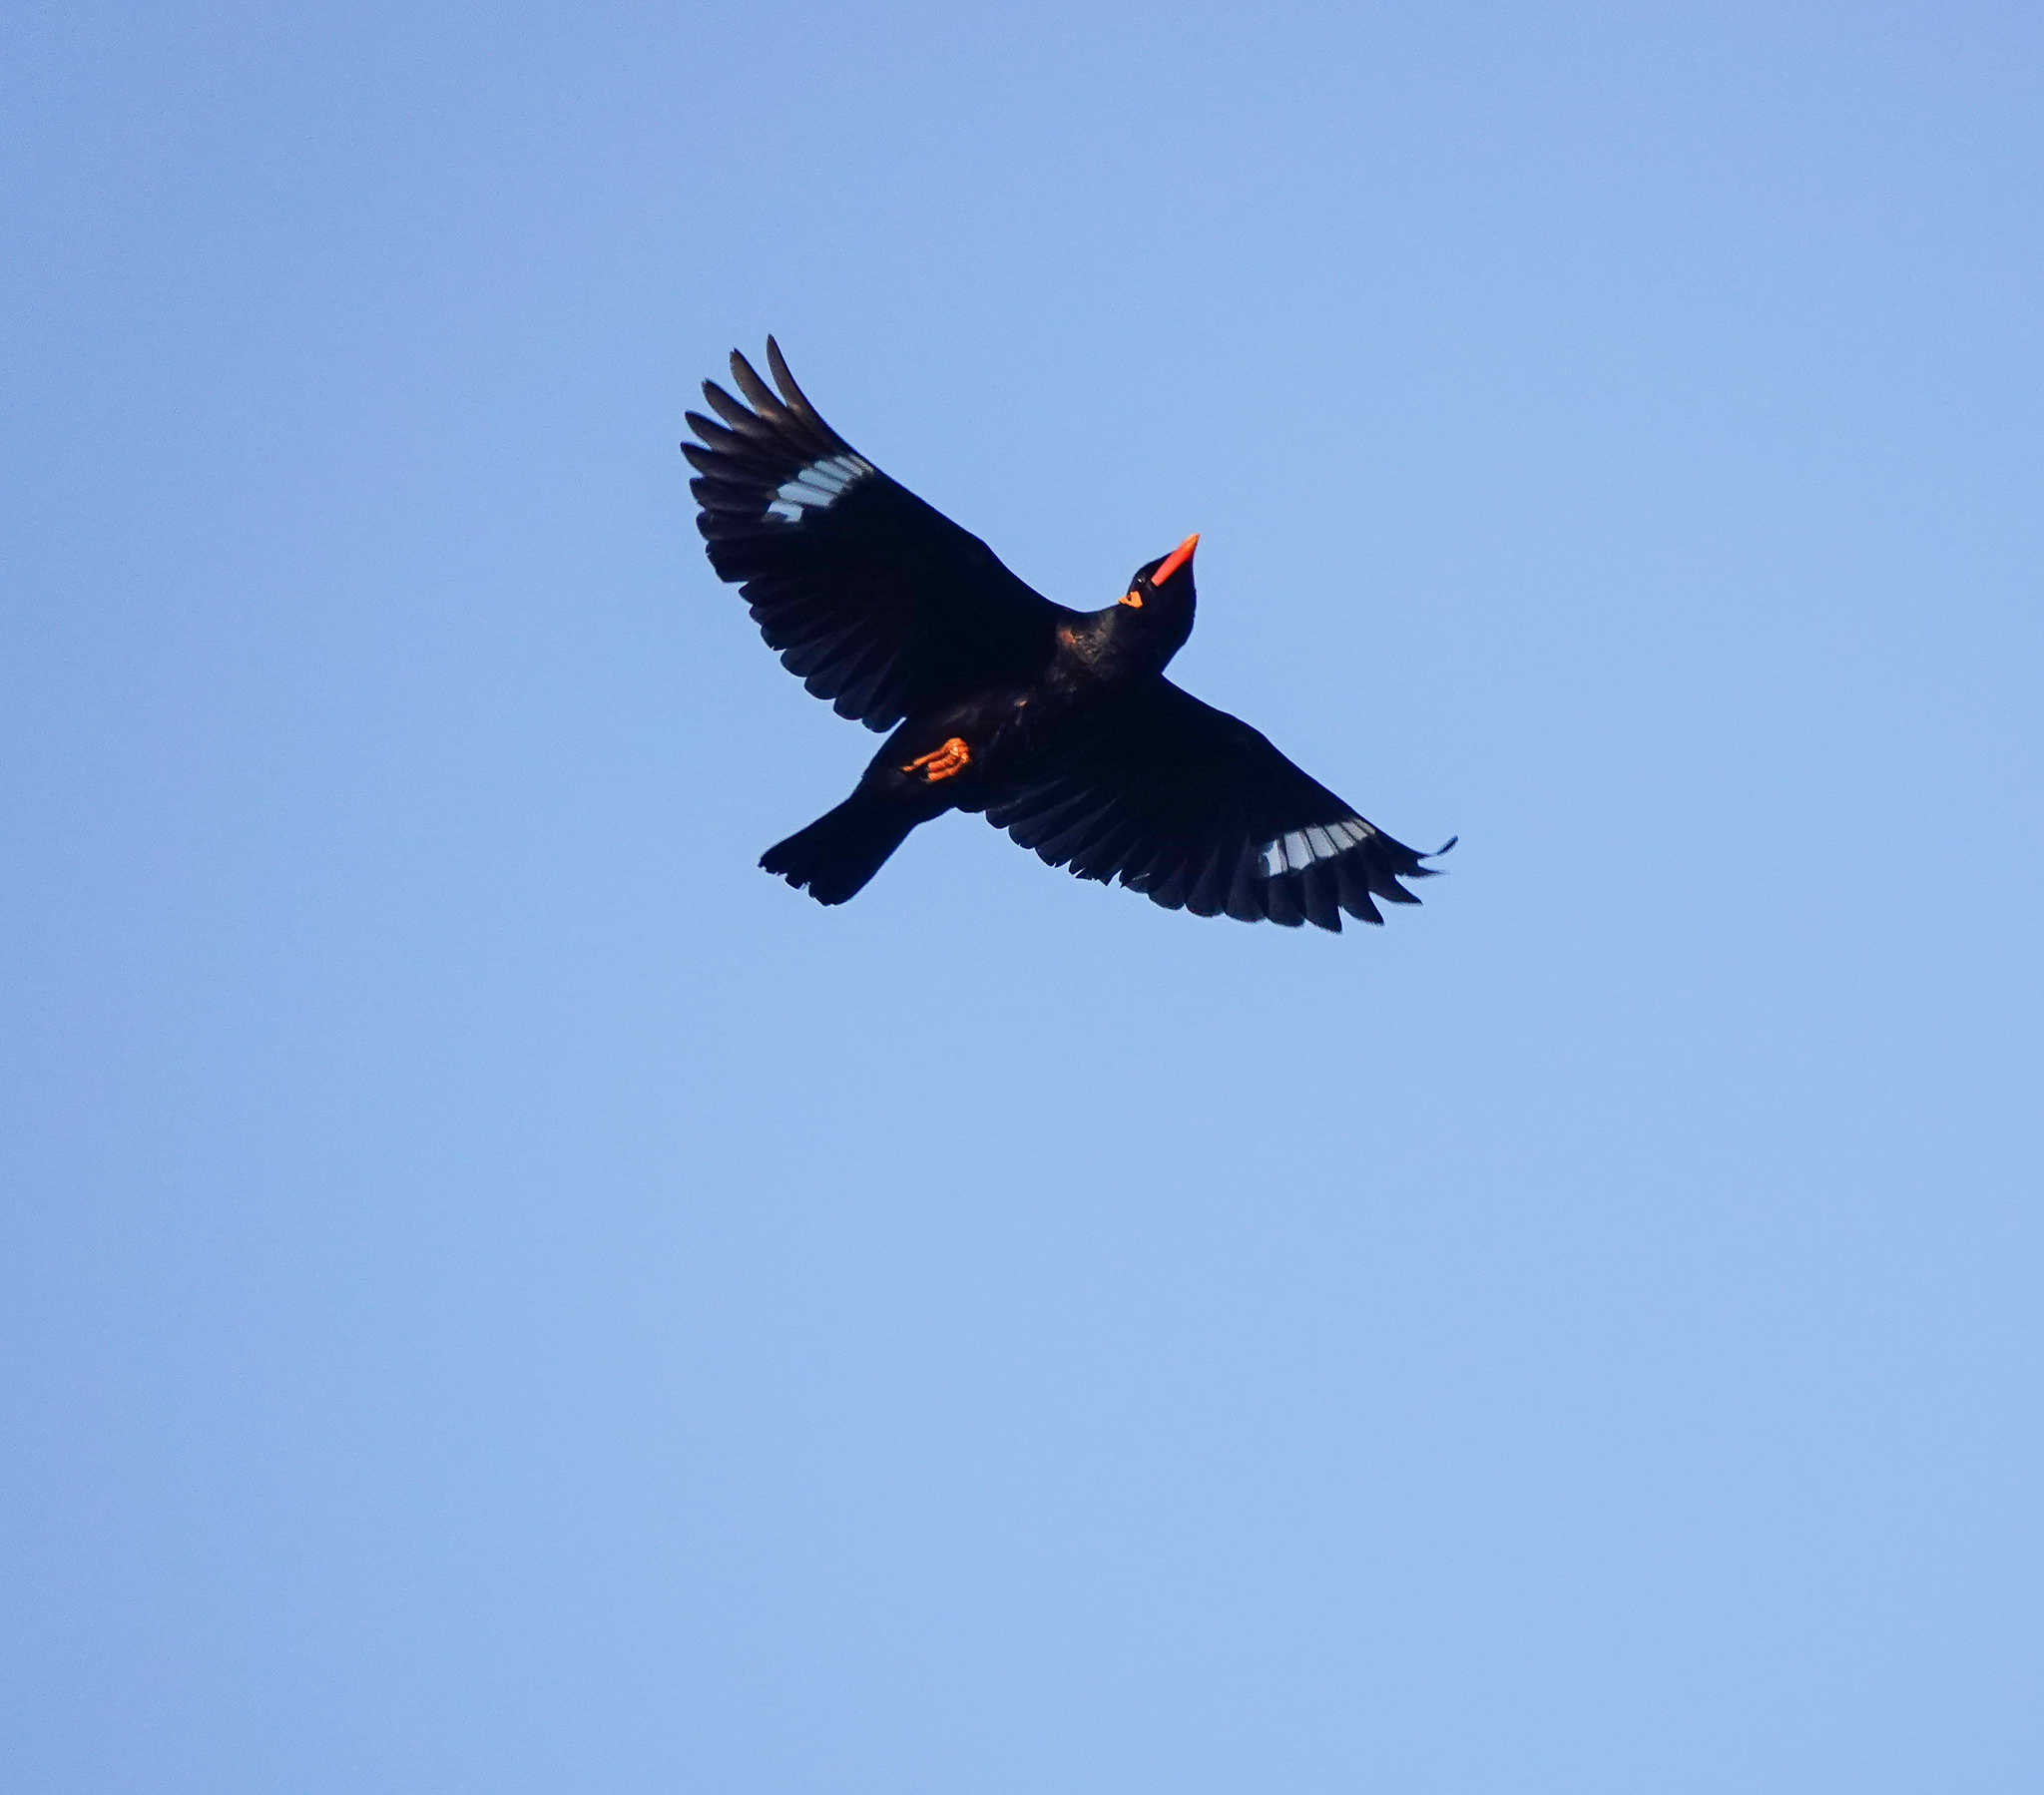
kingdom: Animalia
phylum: Chordata
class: Aves
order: Passeriformes
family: Sturnidae
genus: Gracula
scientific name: Gracula religiosa
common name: Common hill myna
